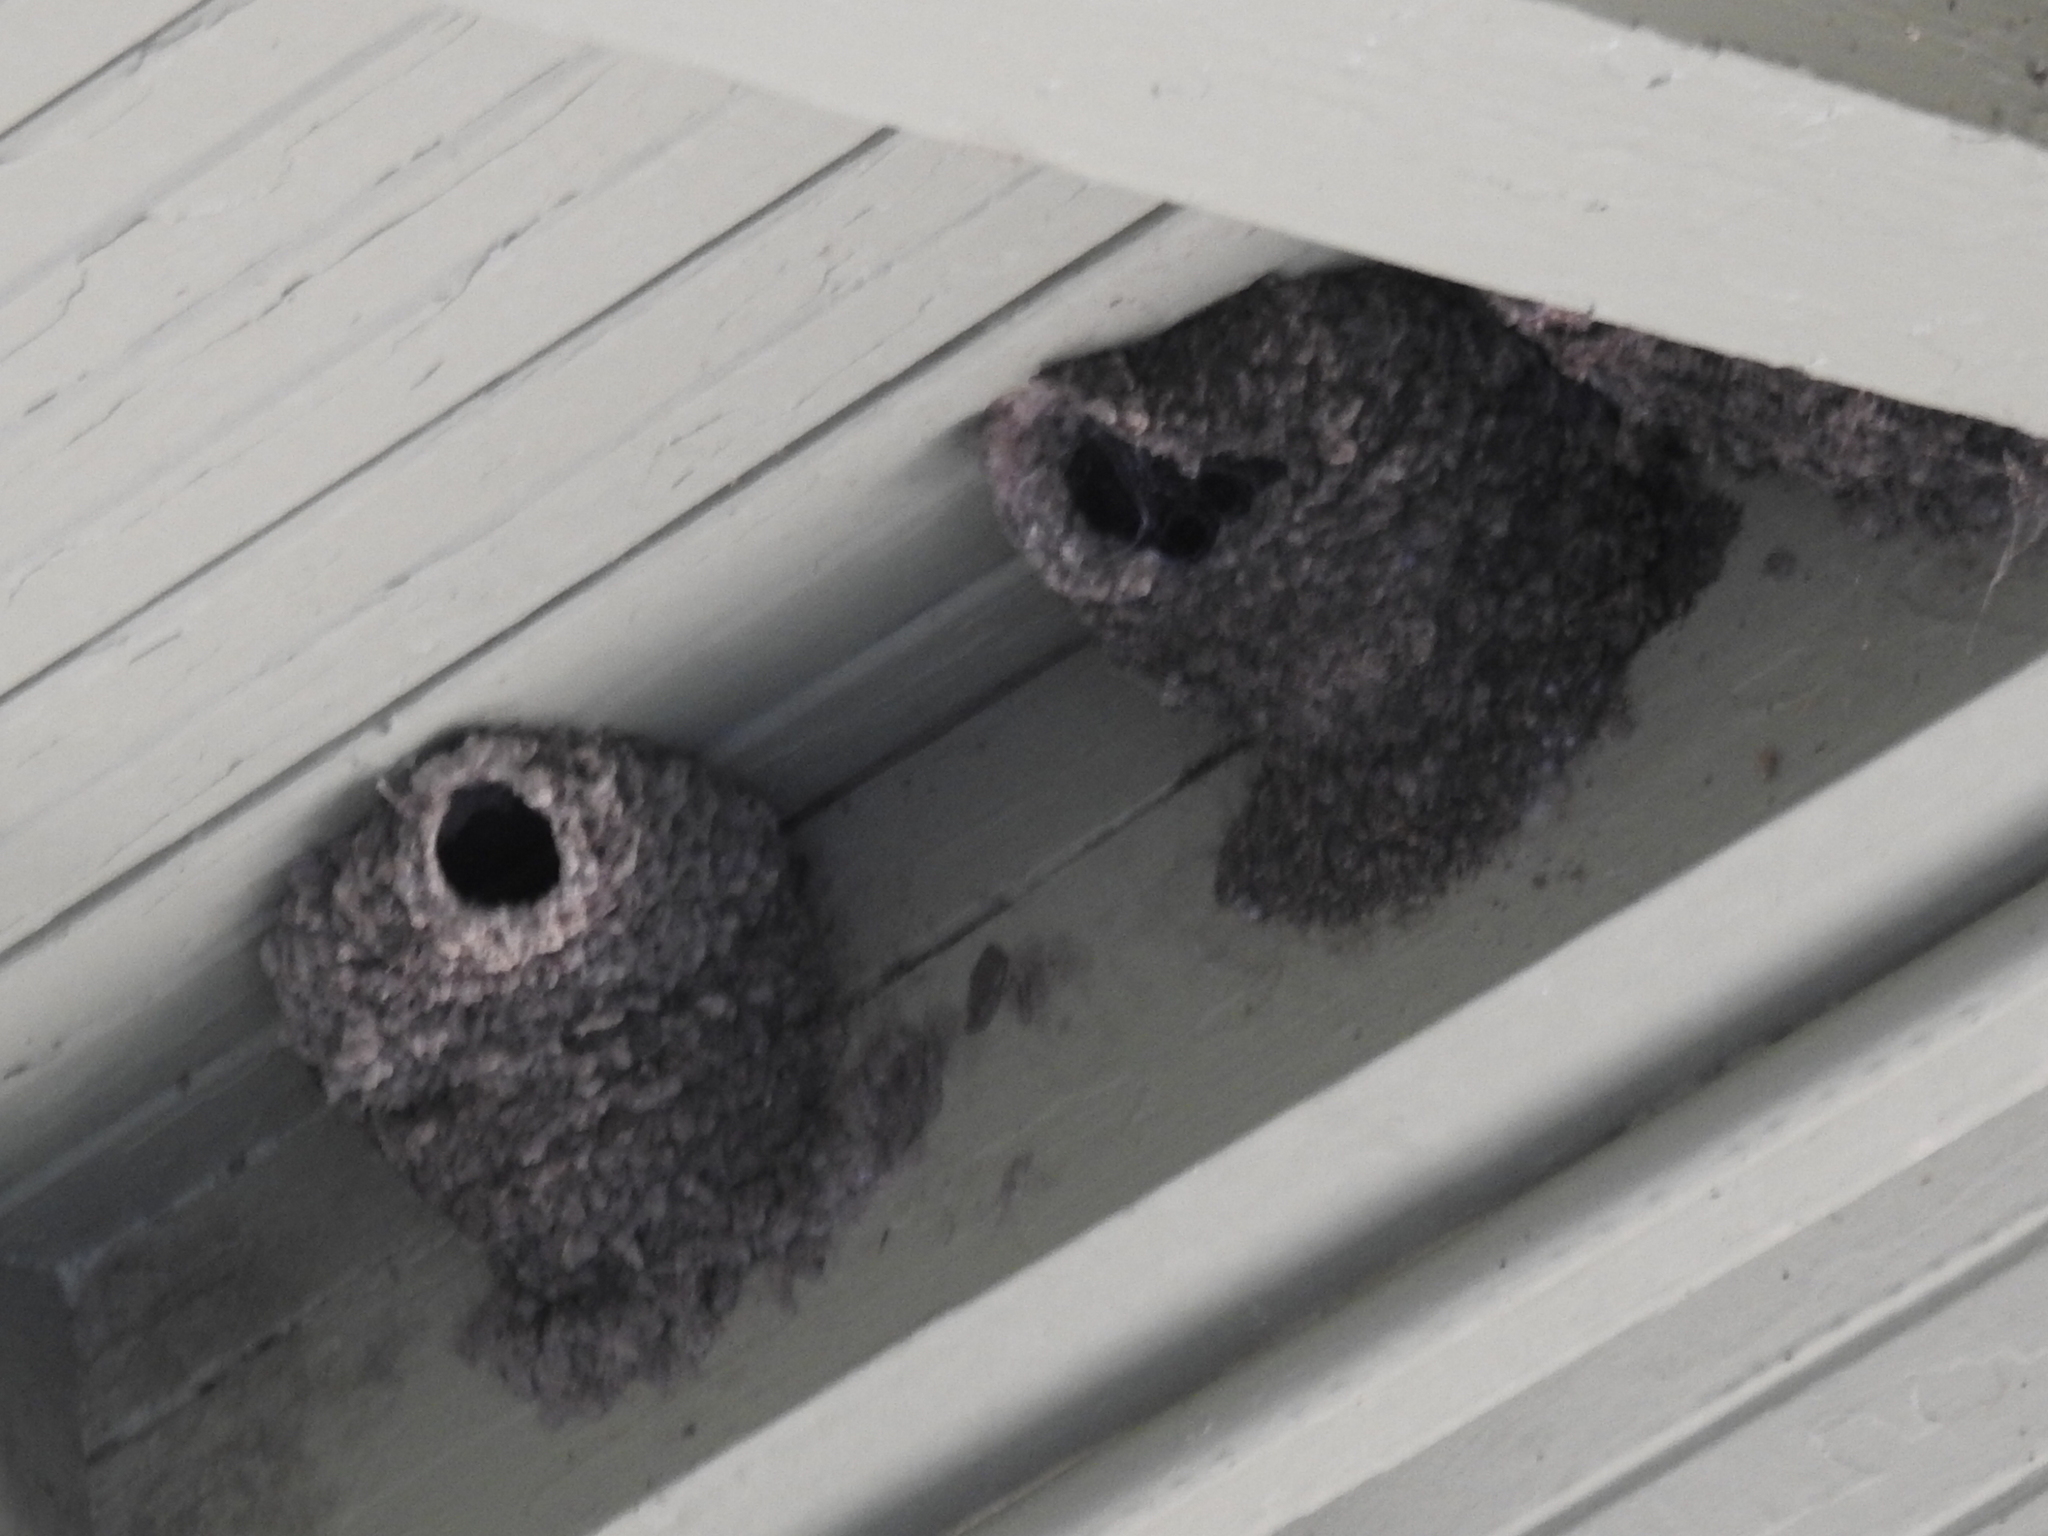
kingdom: Animalia
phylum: Chordata
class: Aves
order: Passeriformes
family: Hirundinidae
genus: Petrochelidon
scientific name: Petrochelidon pyrrhonota
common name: American cliff swallow
